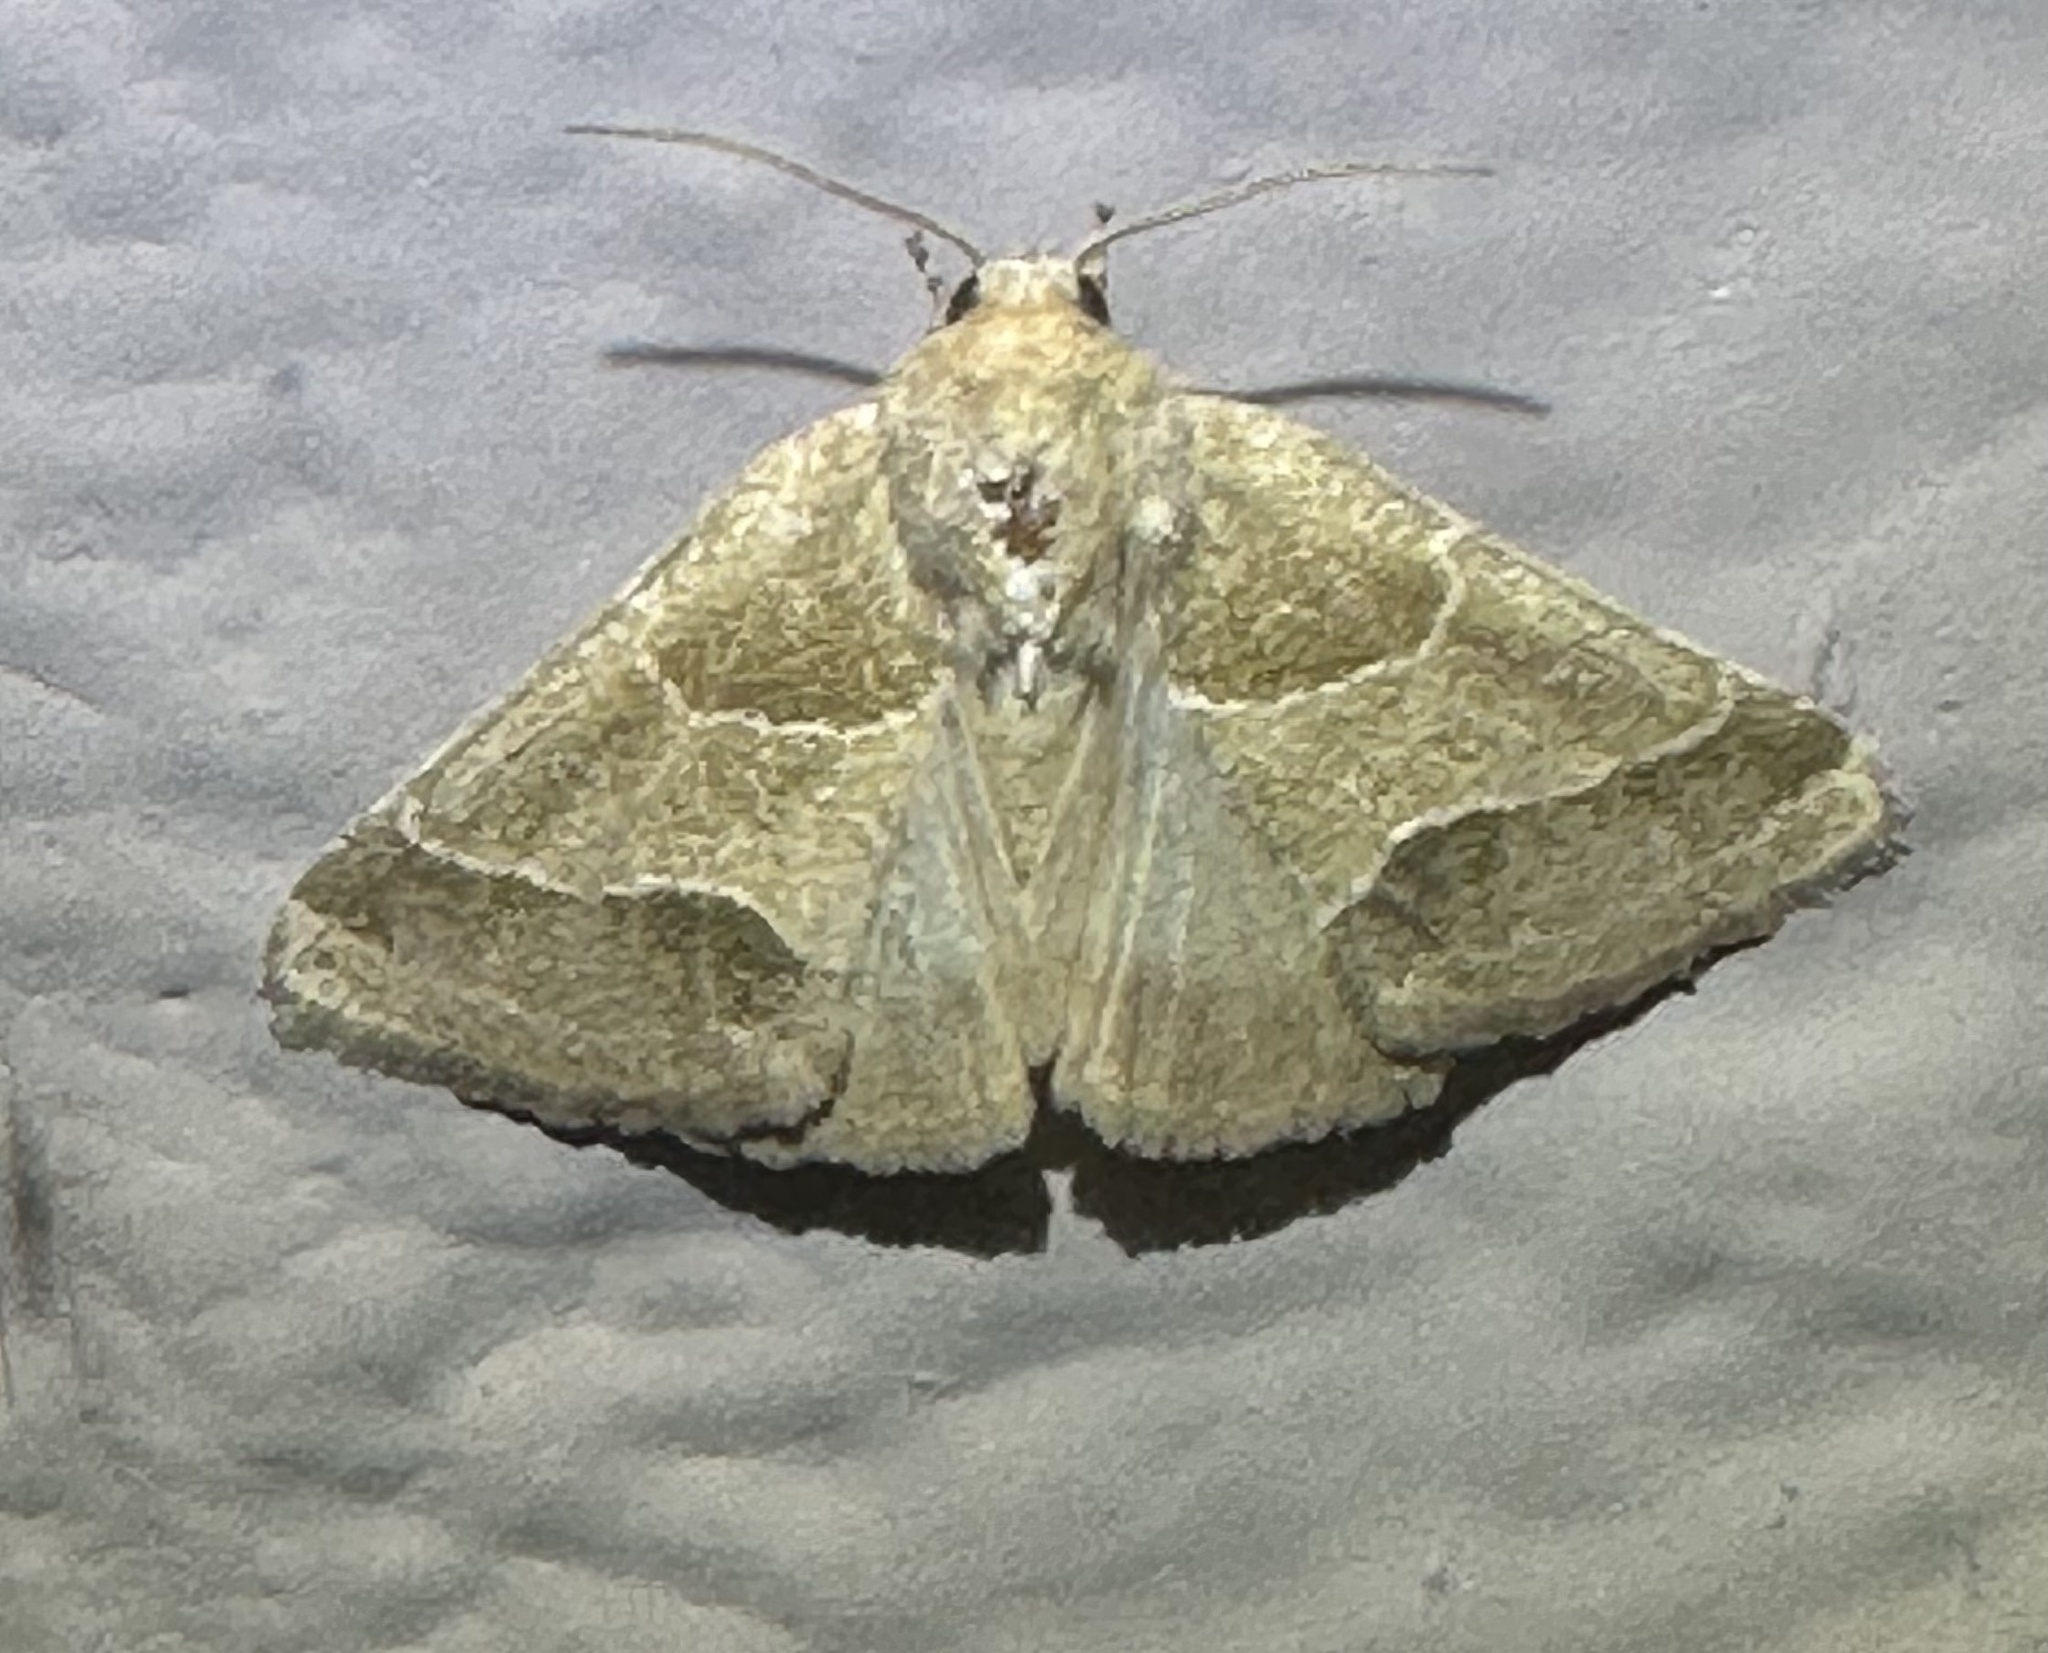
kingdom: Animalia
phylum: Arthropoda
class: Insecta
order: Lepidoptera
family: Noctuidae
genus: Schinia
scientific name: Schinia gracilenta
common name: Slender flower moth
